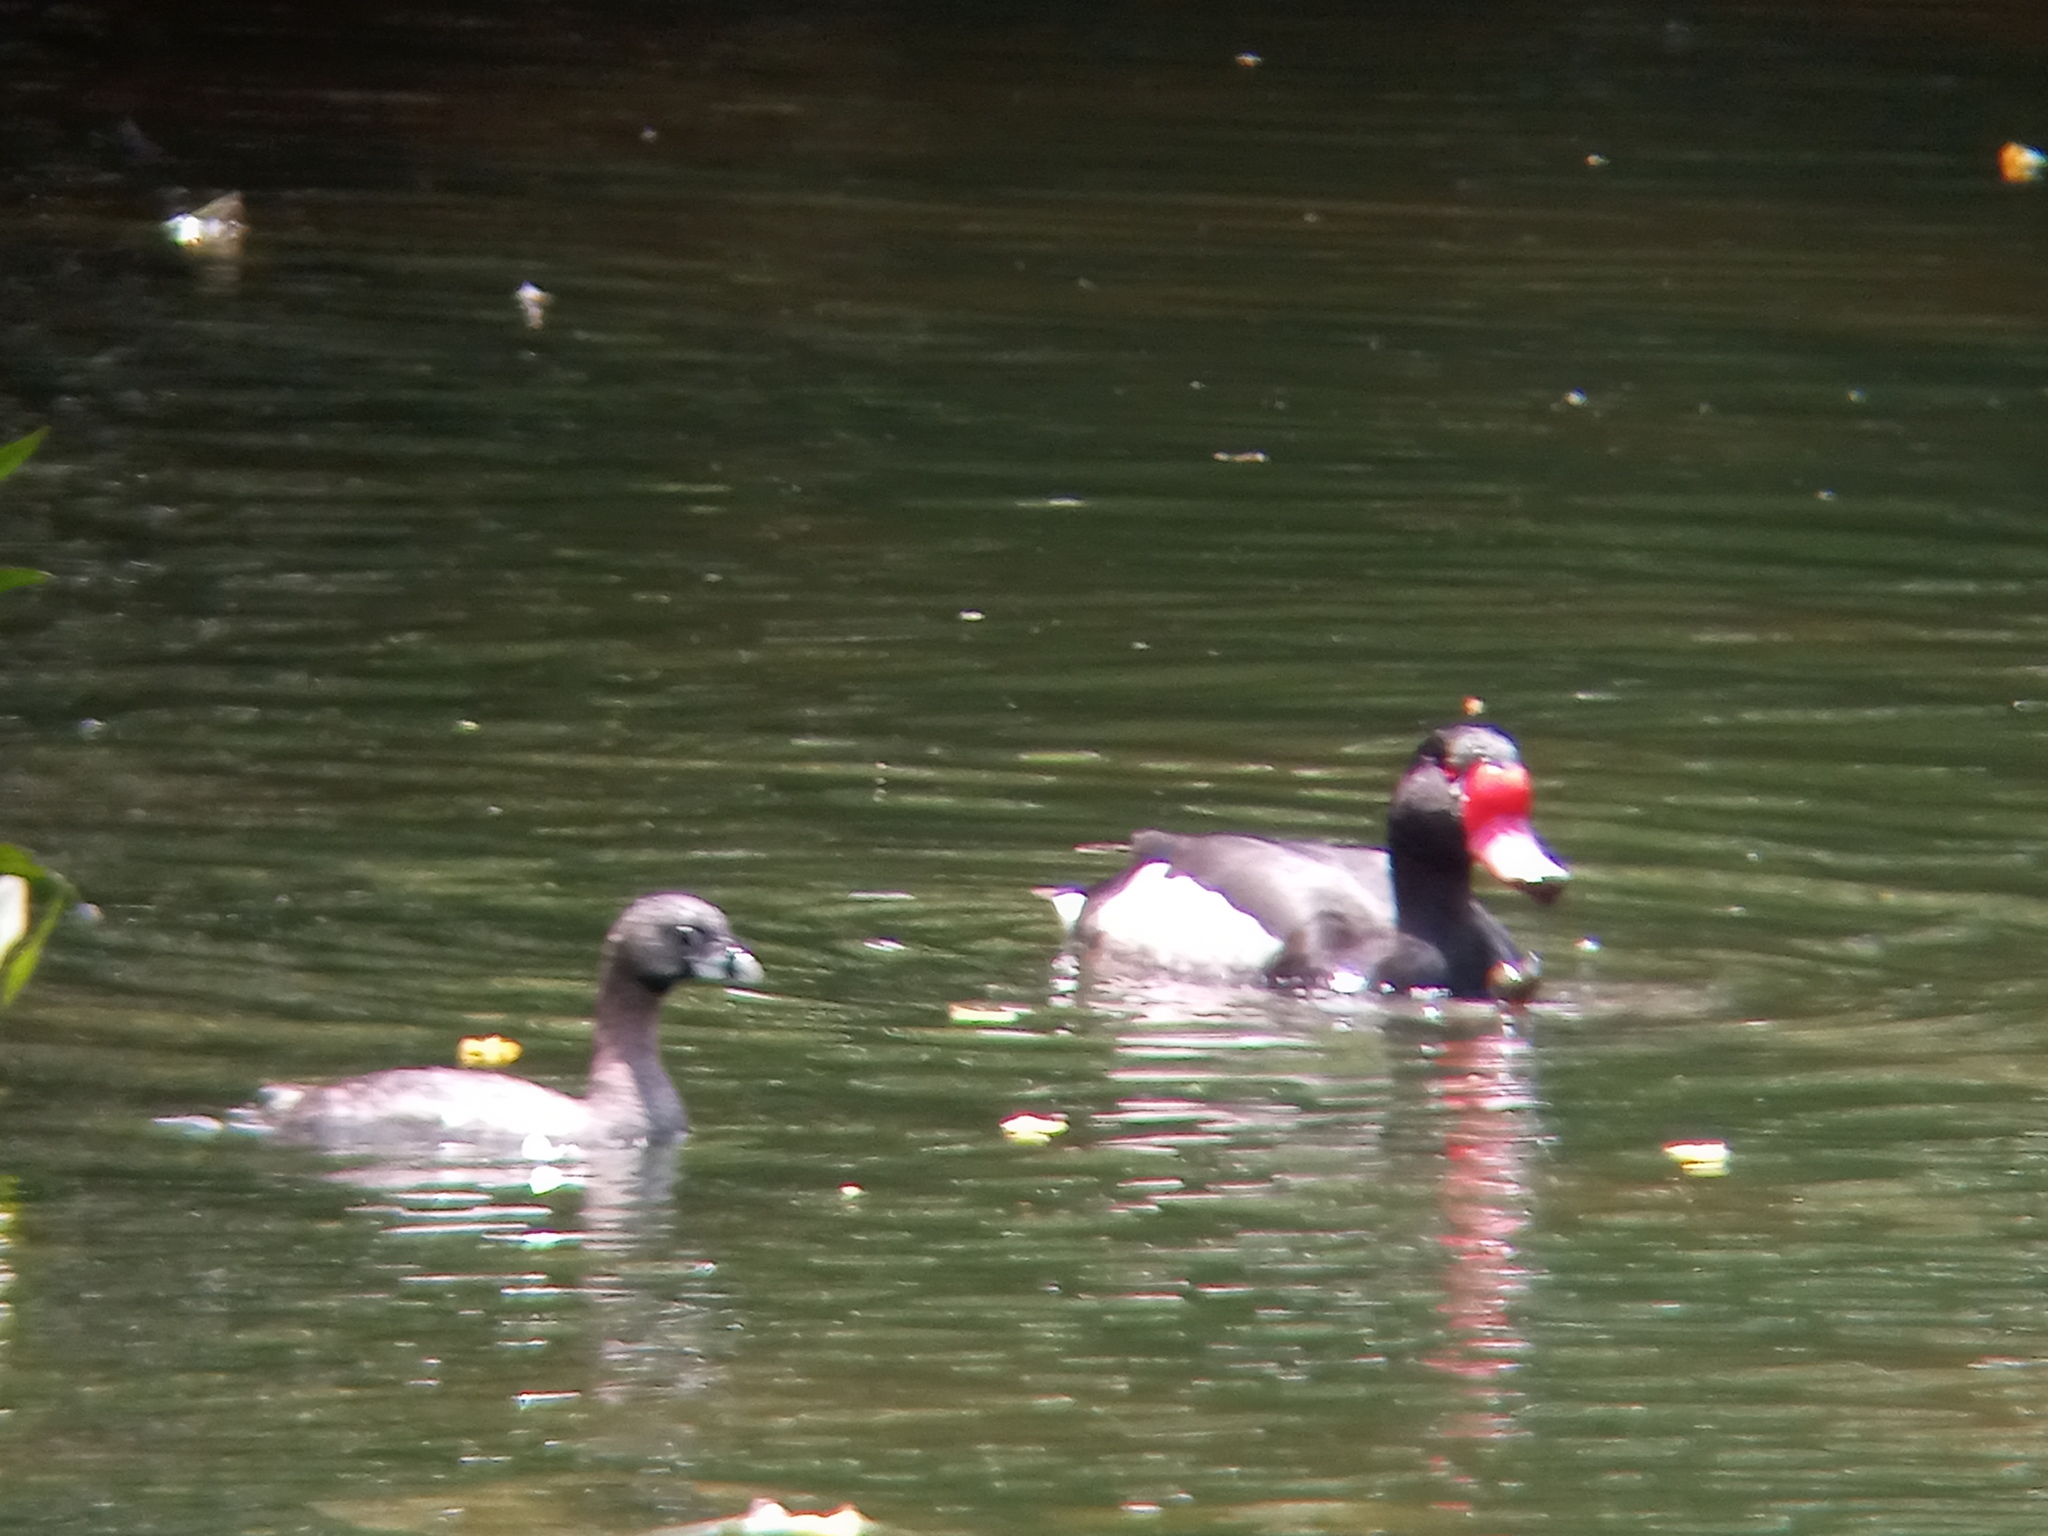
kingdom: Animalia
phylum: Chordata
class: Aves
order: Anseriformes
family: Anatidae
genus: Netta
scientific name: Netta peposaca
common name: Rosy-billed pochard
